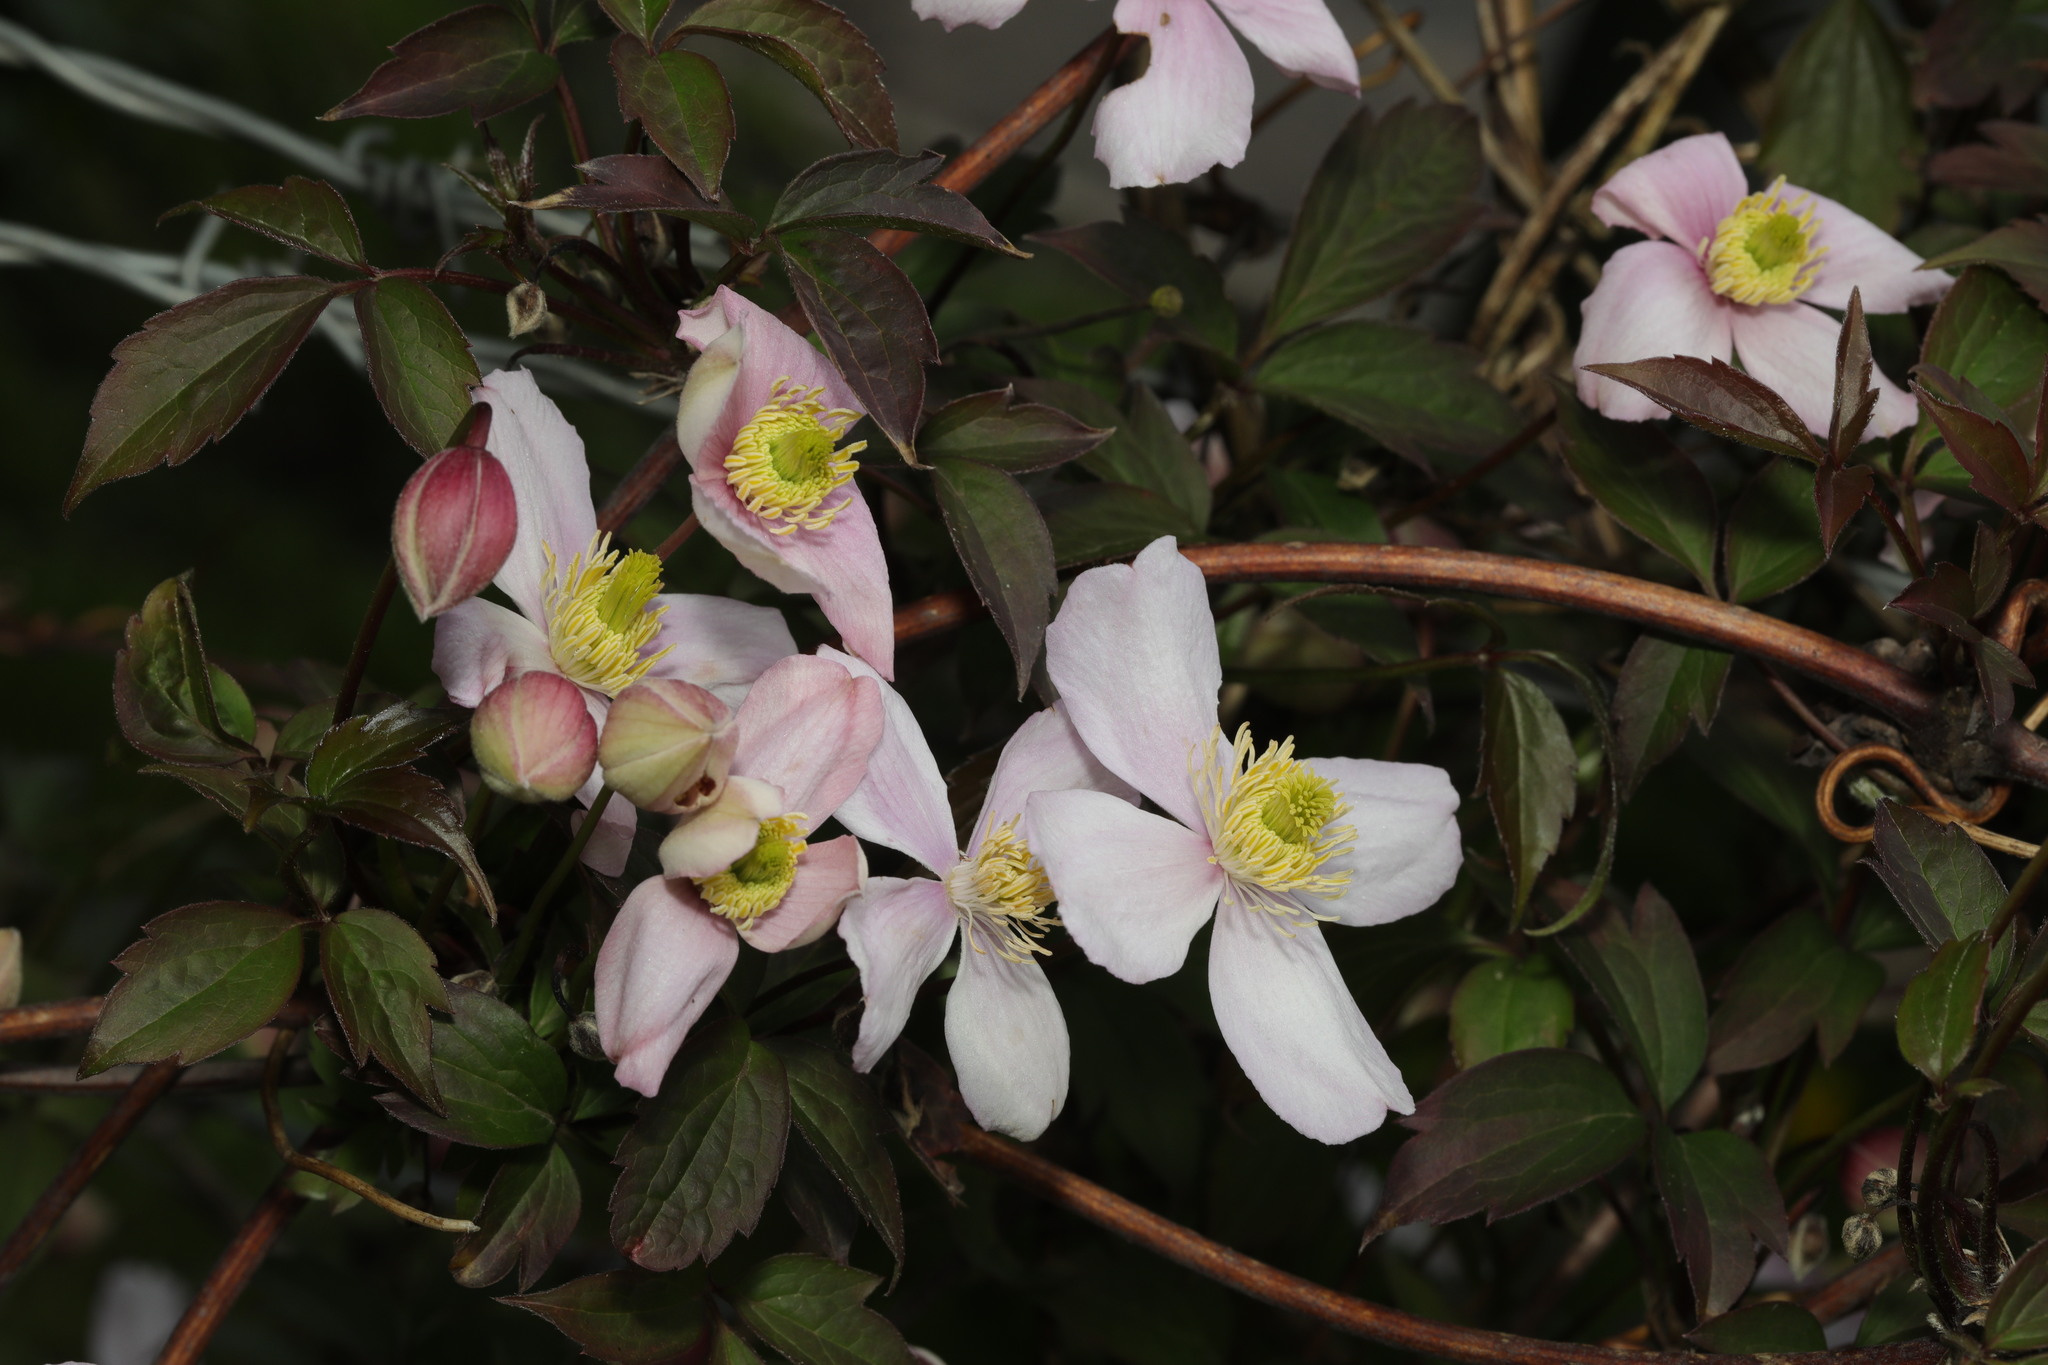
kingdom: Plantae
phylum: Tracheophyta
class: Magnoliopsida
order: Ranunculales
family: Ranunculaceae
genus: Clematis
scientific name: Clematis montana
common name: Himalayan clematis
